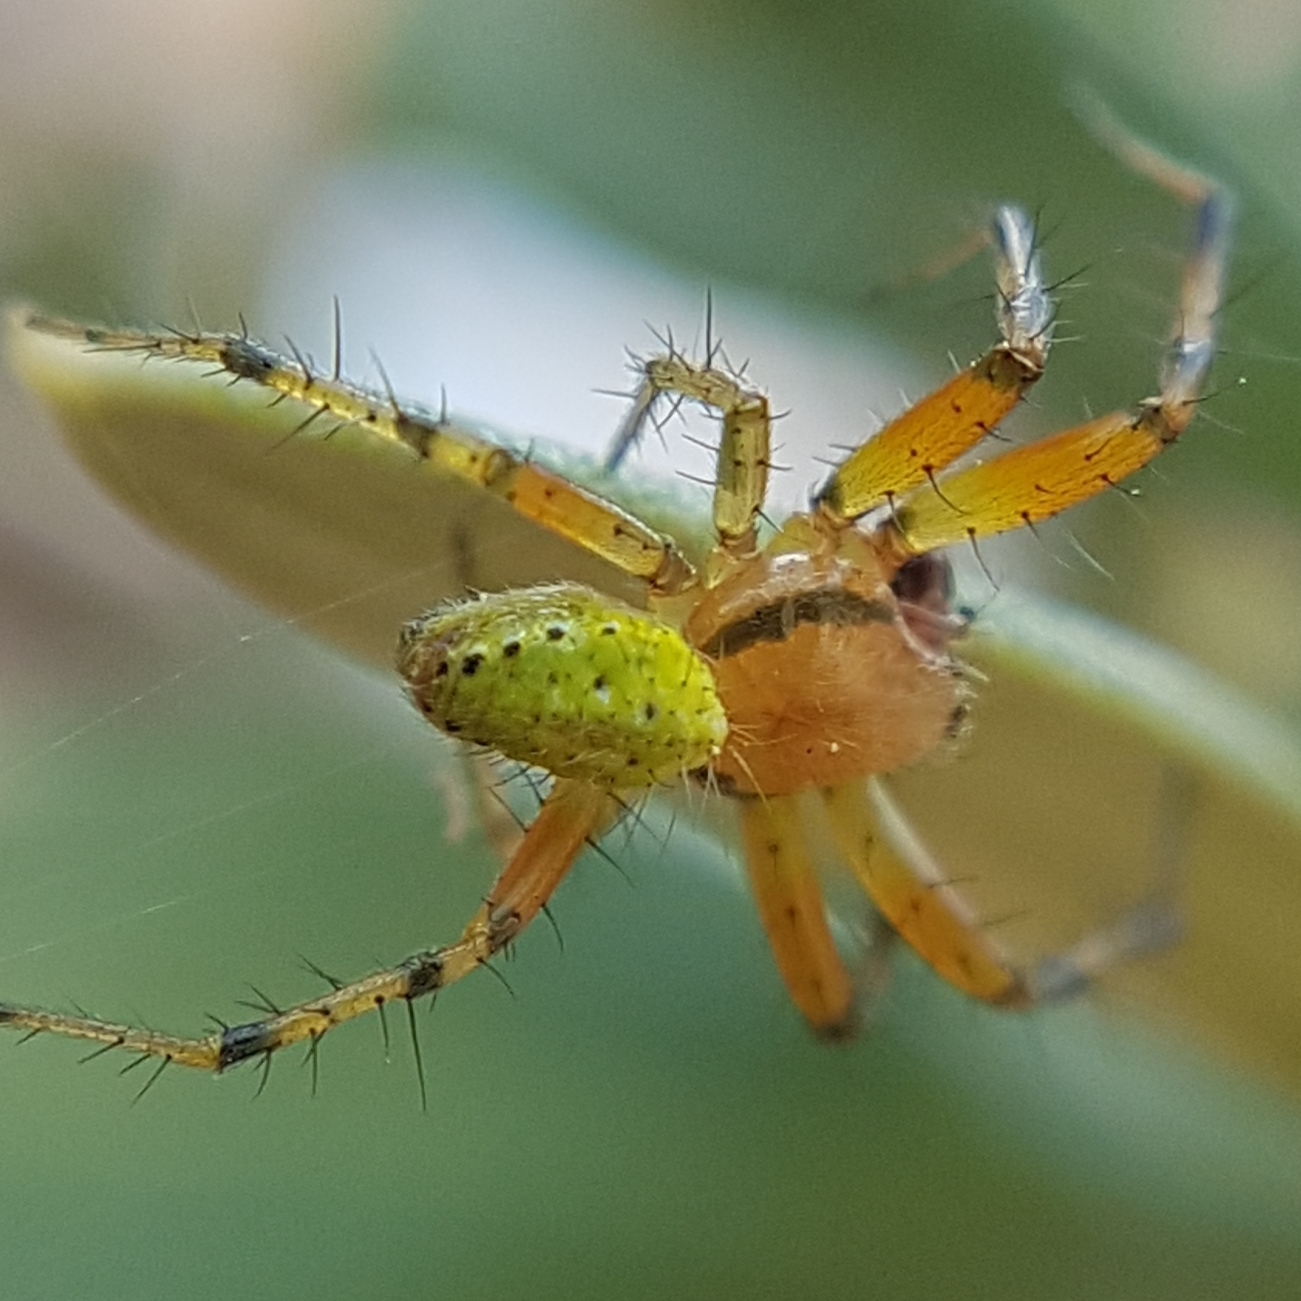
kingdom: Animalia
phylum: Arthropoda
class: Arachnida
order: Araneae
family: Araneidae
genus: Araniella
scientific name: Araniella
